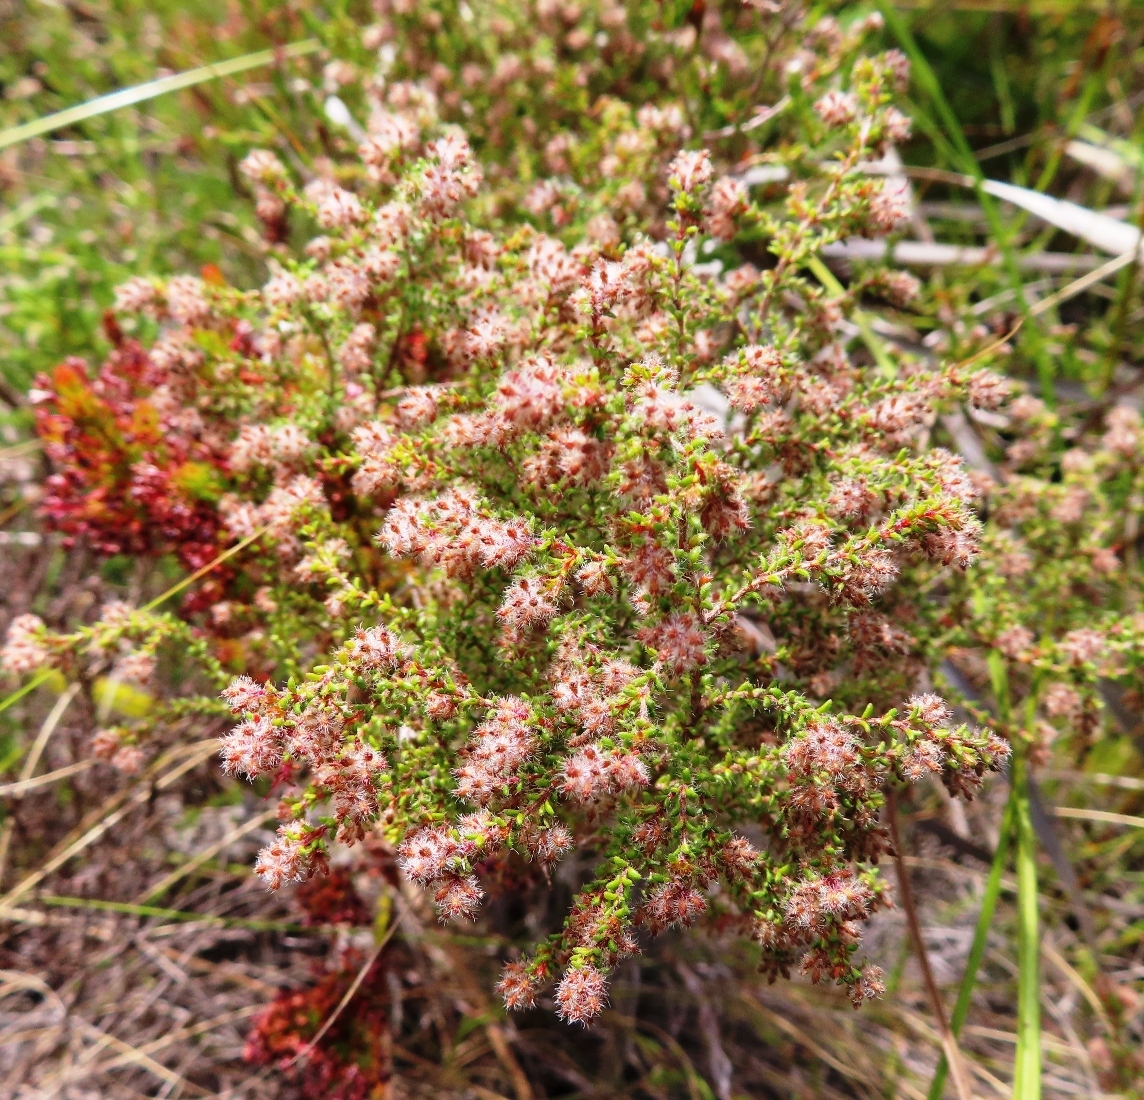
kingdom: Plantae
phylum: Tracheophyta
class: Magnoliopsida
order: Ericales
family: Ericaceae
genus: Erica
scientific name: Erica erinus
